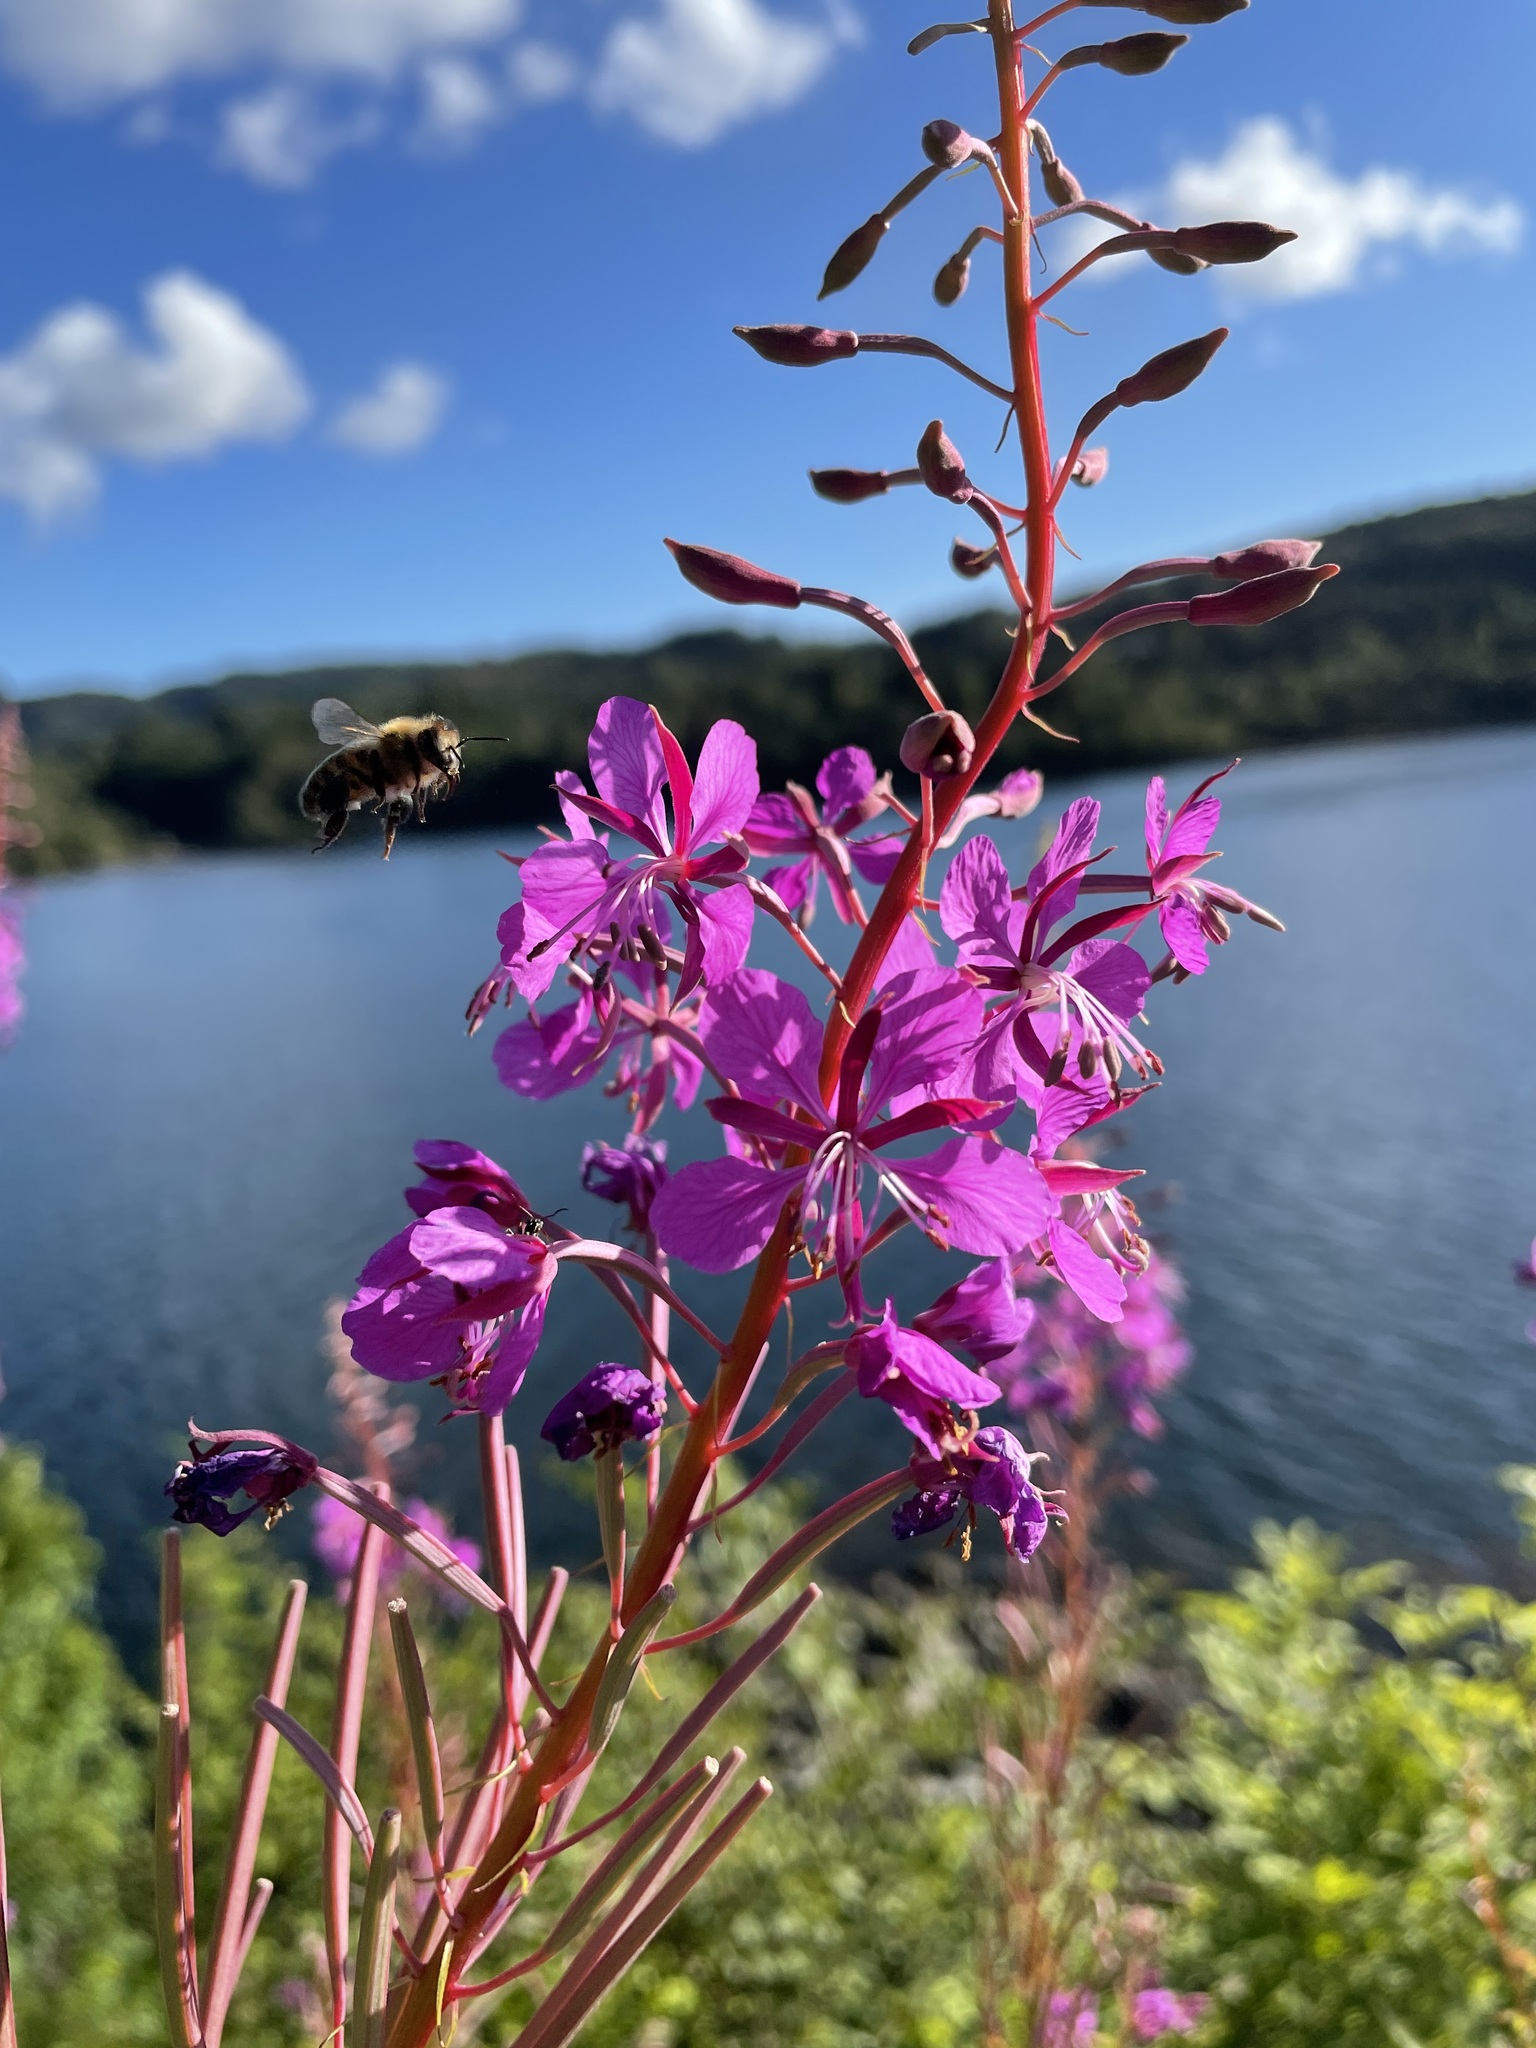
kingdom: Plantae
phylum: Tracheophyta
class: Magnoliopsida
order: Myrtales
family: Onagraceae
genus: Chamaenerion
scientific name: Chamaenerion angustifolium
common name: Fireweed
